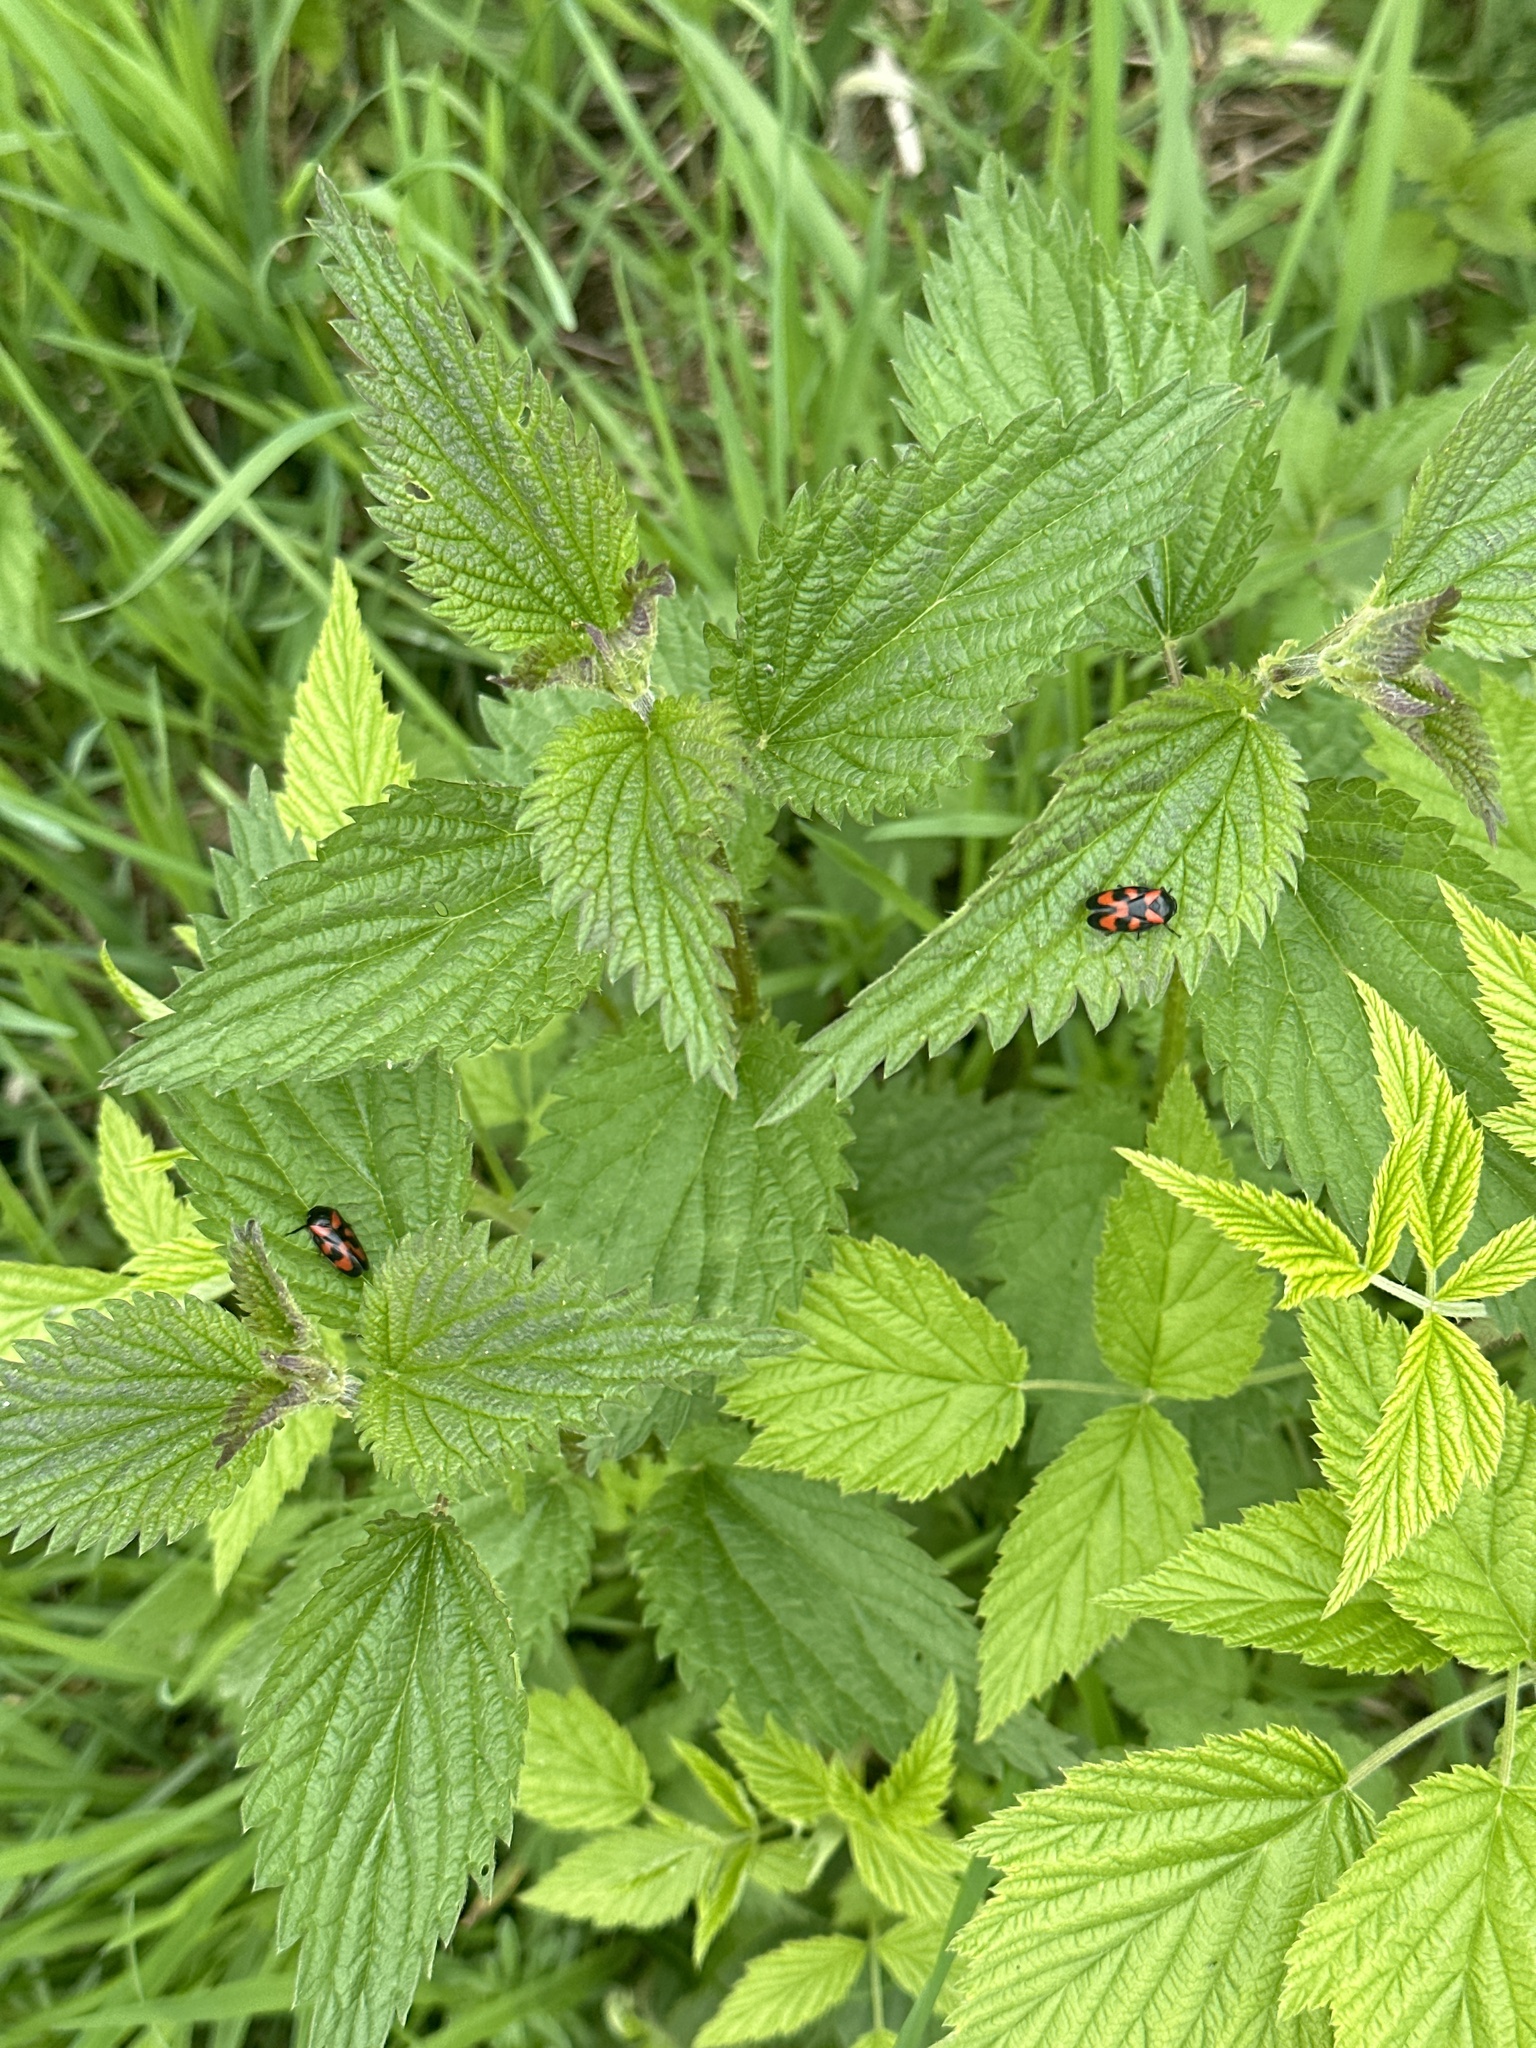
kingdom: Animalia
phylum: Arthropoda
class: Insecta
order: Hemiptera
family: Cercopidae
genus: Cercopis
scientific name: Cercopis vulnerata
